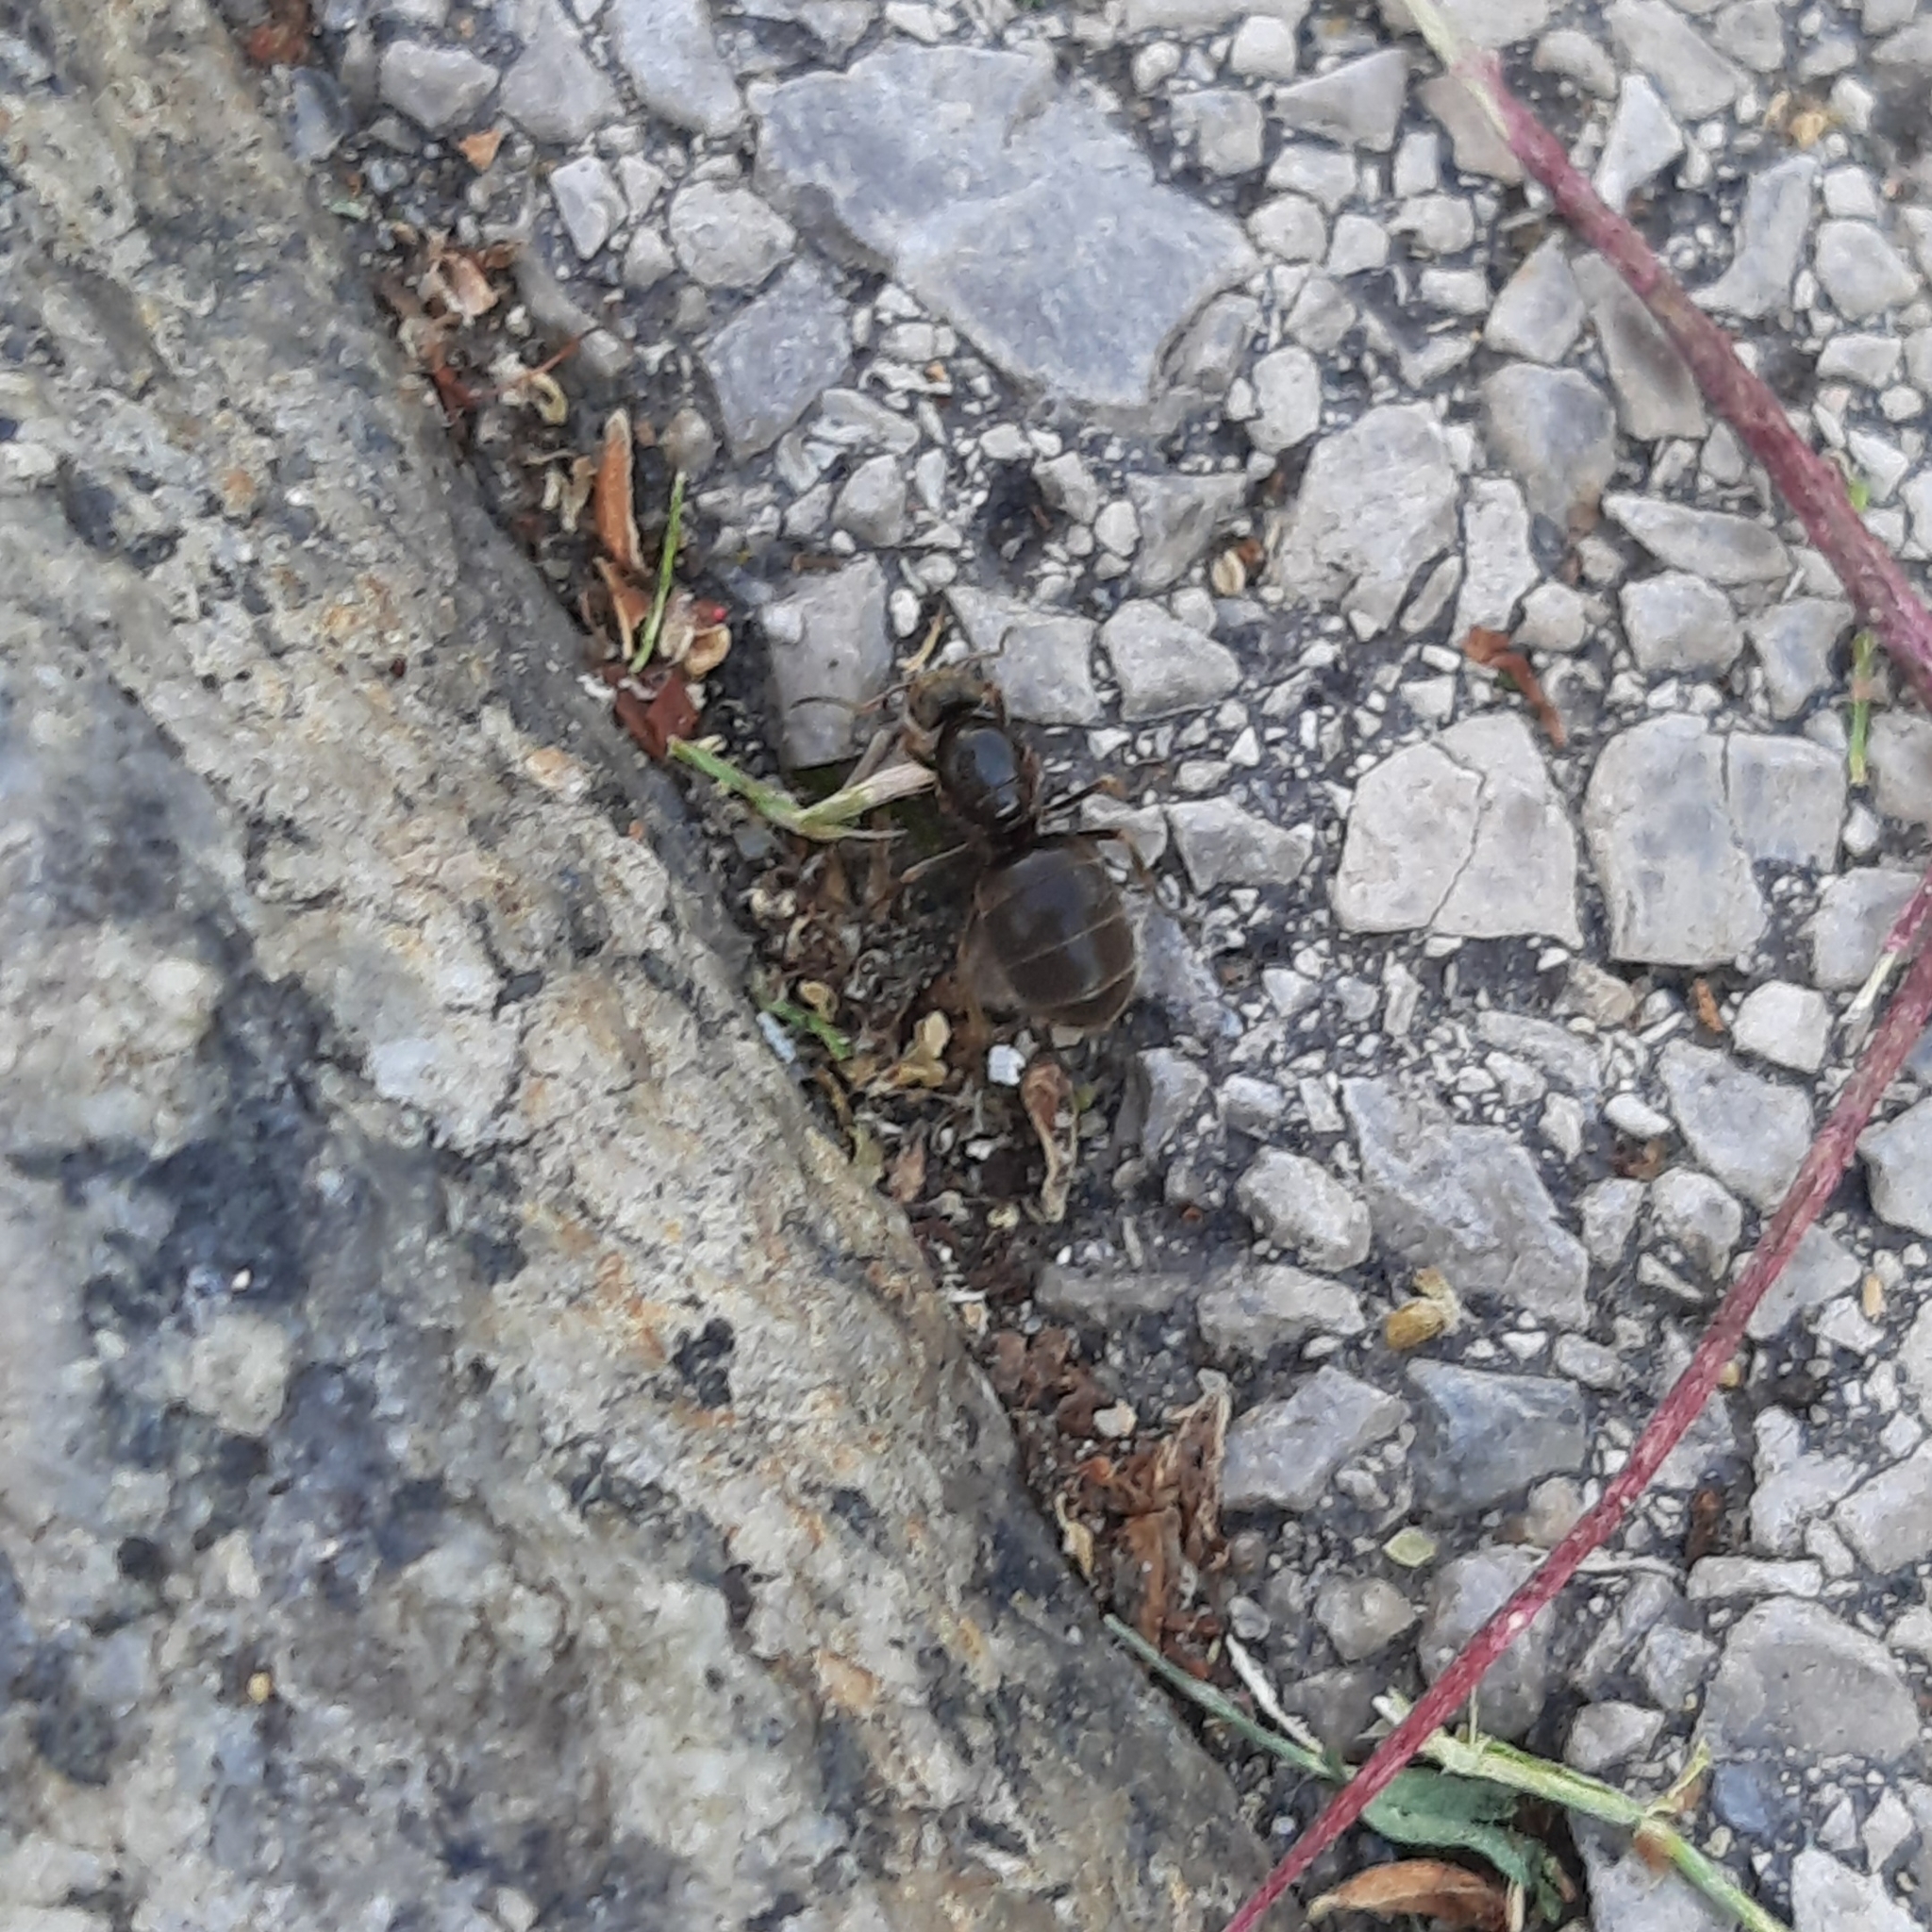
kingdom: Animalia
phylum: Arthropoda
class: Insecta
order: Hymenoptera
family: Formicidae
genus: Lasius
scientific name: Lasius
